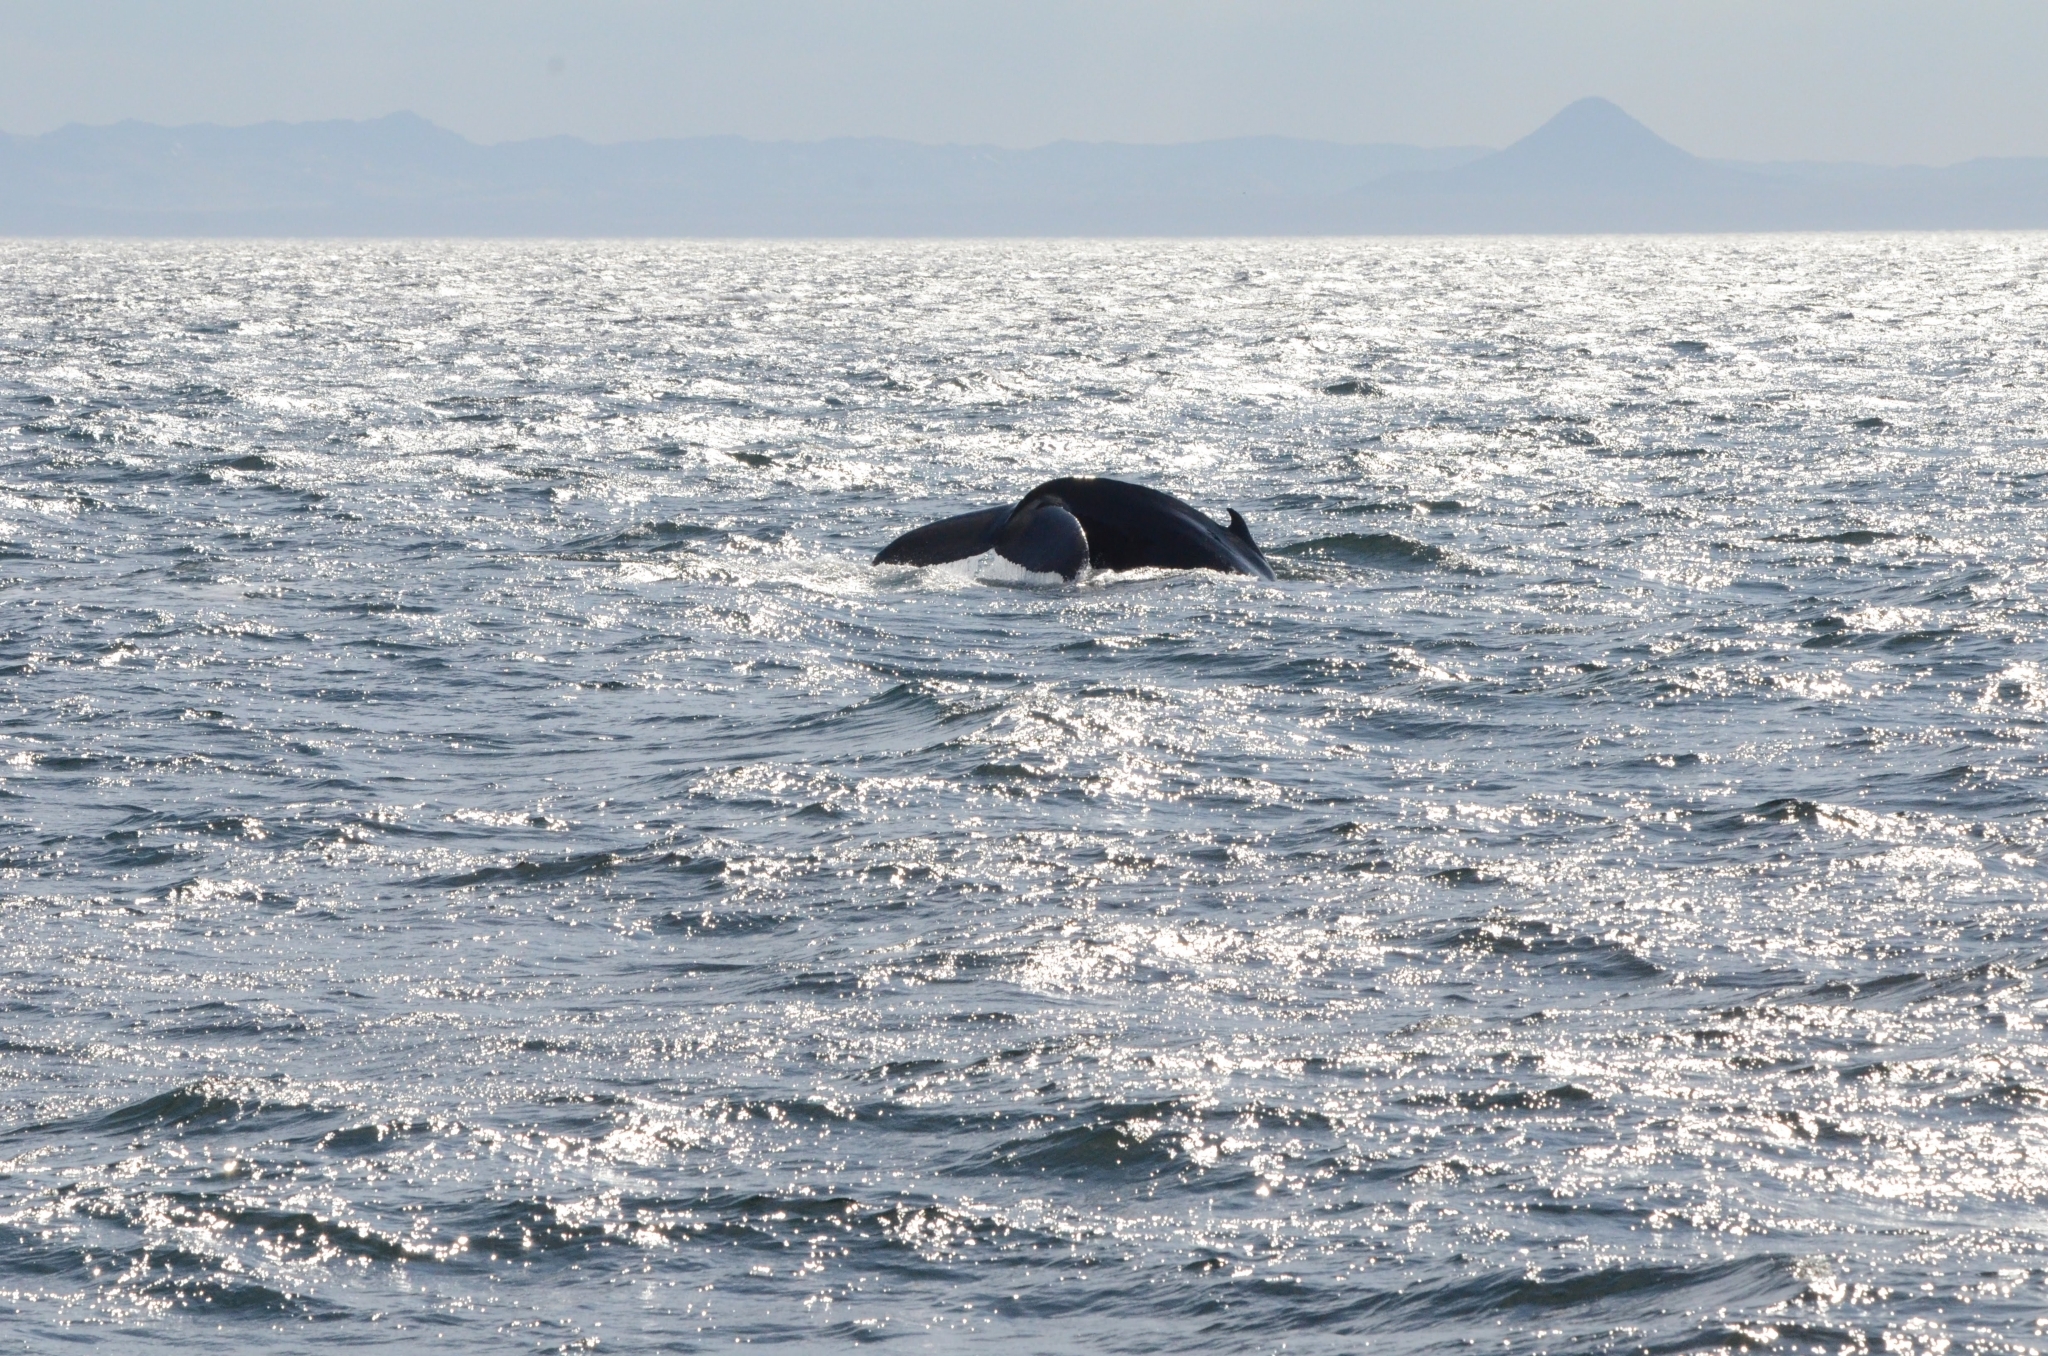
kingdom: Animalia
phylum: Chordata
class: Mammalia
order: Cetacea
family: Balaenopteridae
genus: Megaptera
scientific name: Megaptera novaeangliae
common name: Humpback whale
